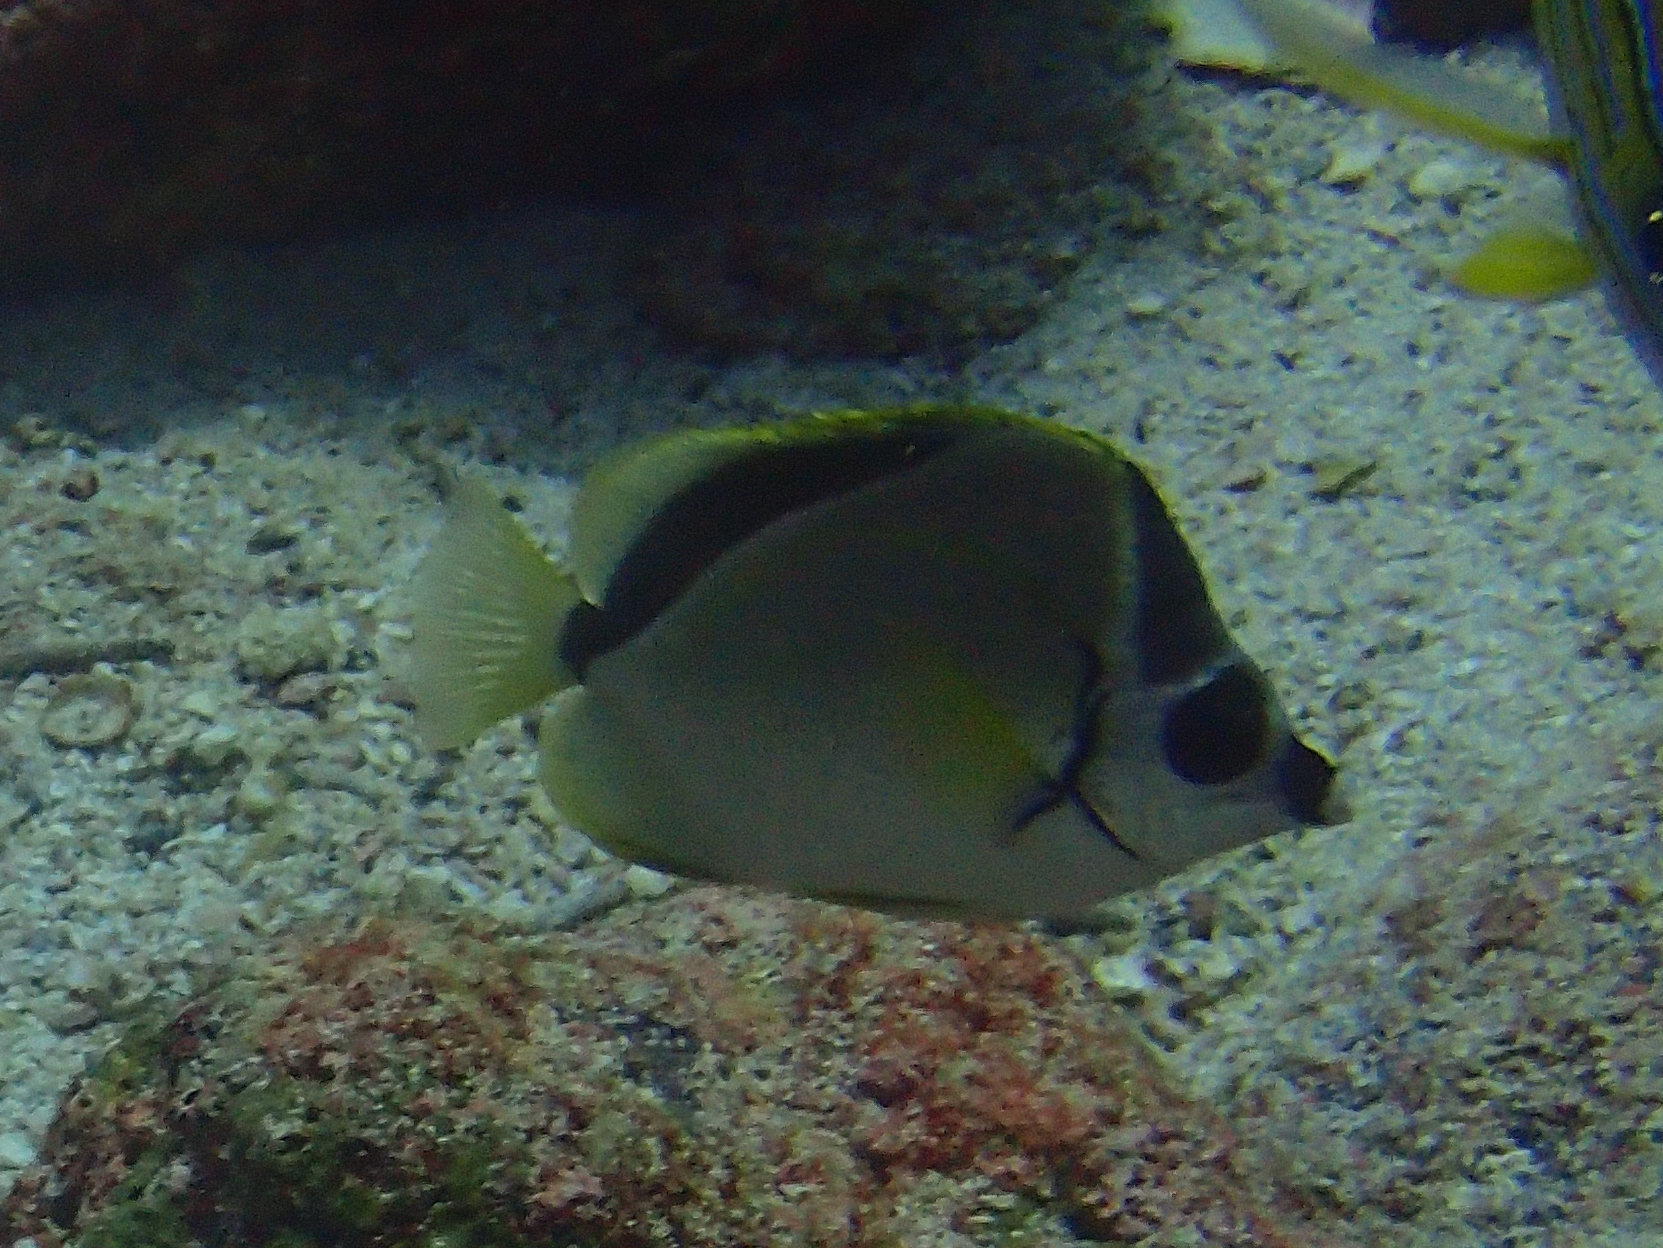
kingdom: Animalia
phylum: Chordata
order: Perciformes
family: Chaetodontidae
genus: Johnrandallia
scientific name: Johnrandallia nigrirostris
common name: Barberfish
